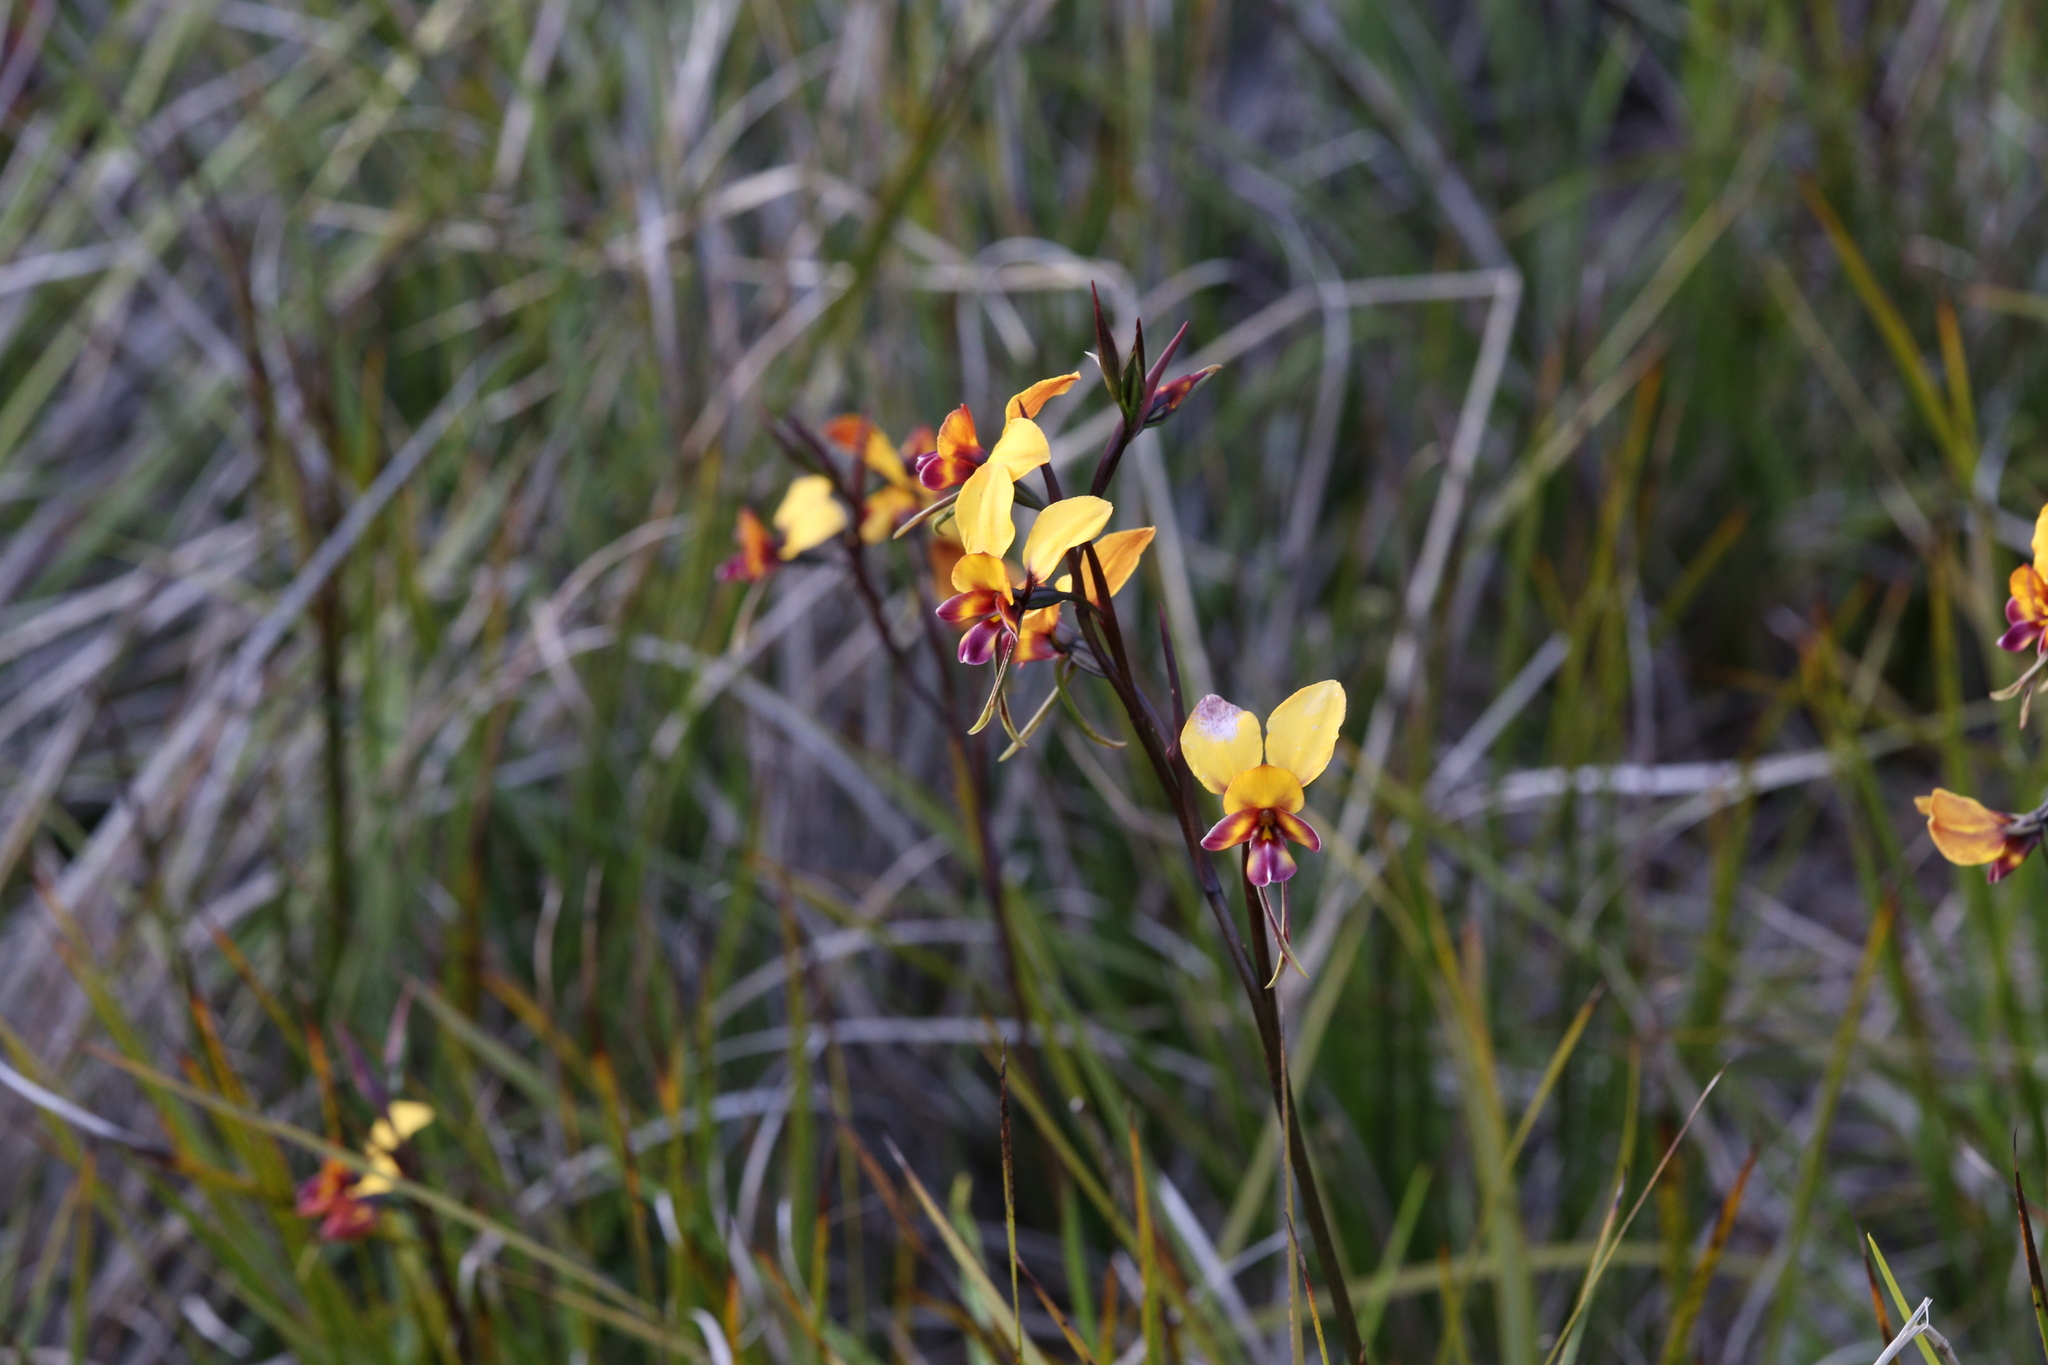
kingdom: Plantae
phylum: Tracheophyta
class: Liliopsida
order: Asparagales
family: Orchidaceae
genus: Diuris
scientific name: Diuris magnifica
